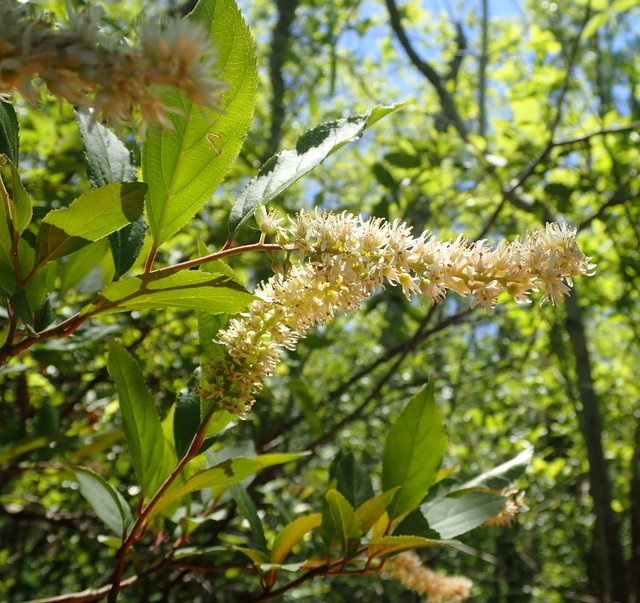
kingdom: Plantae
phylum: Tracheophyta
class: Magnoliopsida
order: Saxifragales
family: Iteaceae
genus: Itea
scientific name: Itea virginica
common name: Sweetspire
